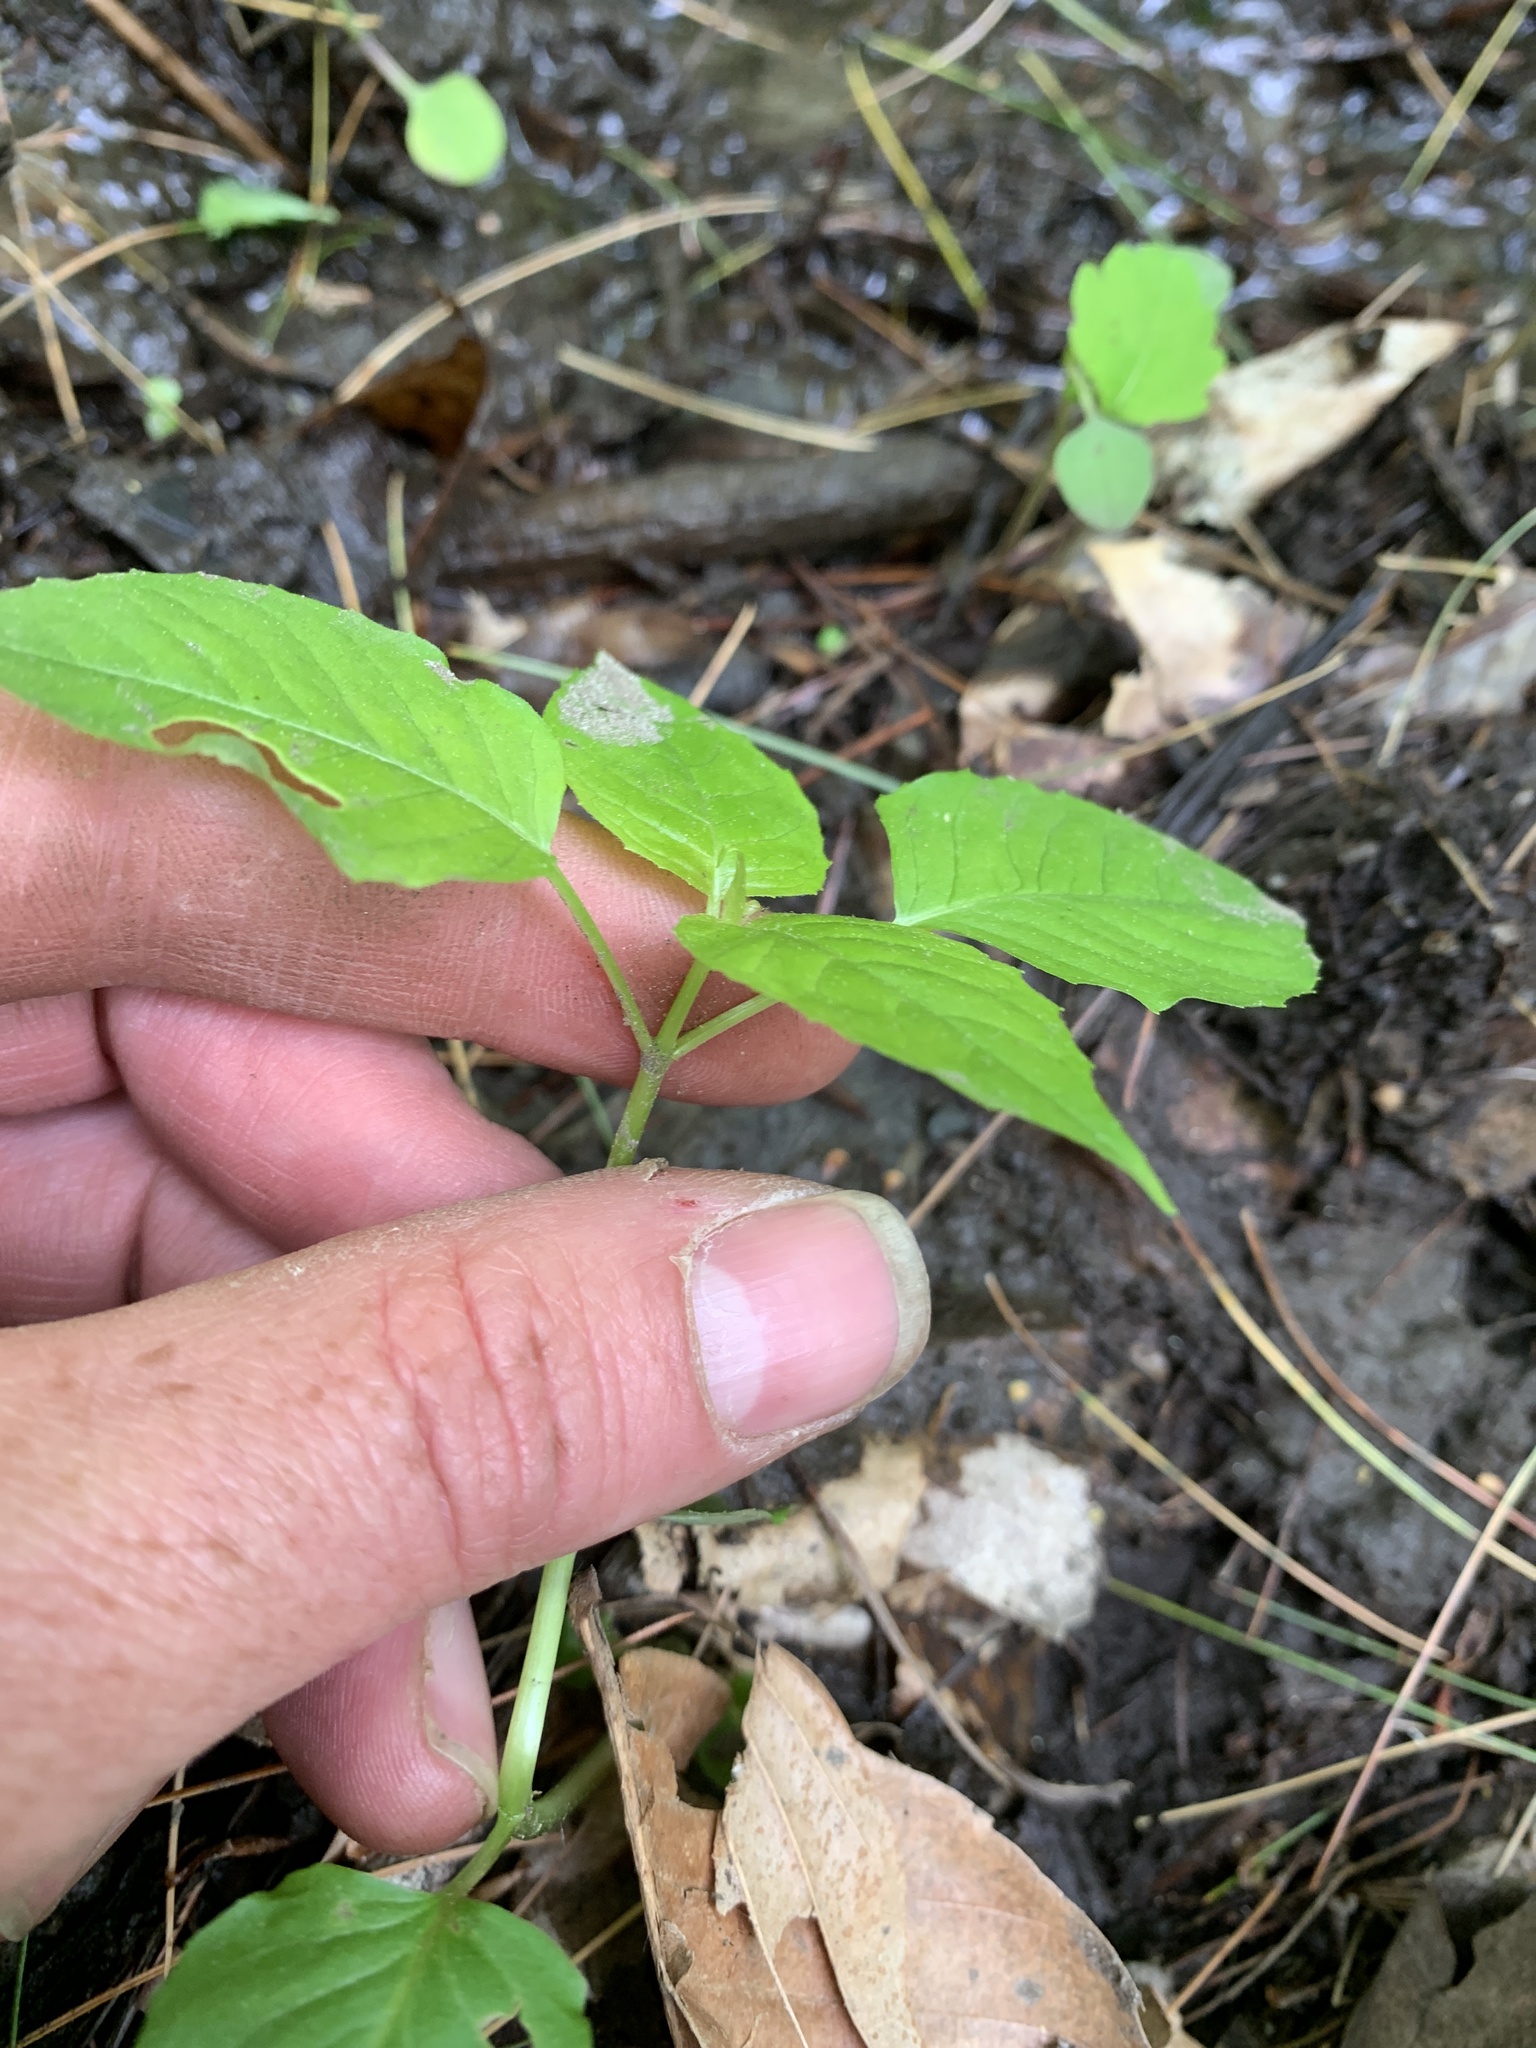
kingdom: Plantae
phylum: Tracheophyta
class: Magnoliopsida
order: Myrtales
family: Onagraceae
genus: Circaea
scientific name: Circaea canadensis
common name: Broad-leaved enchanter's nightshade
